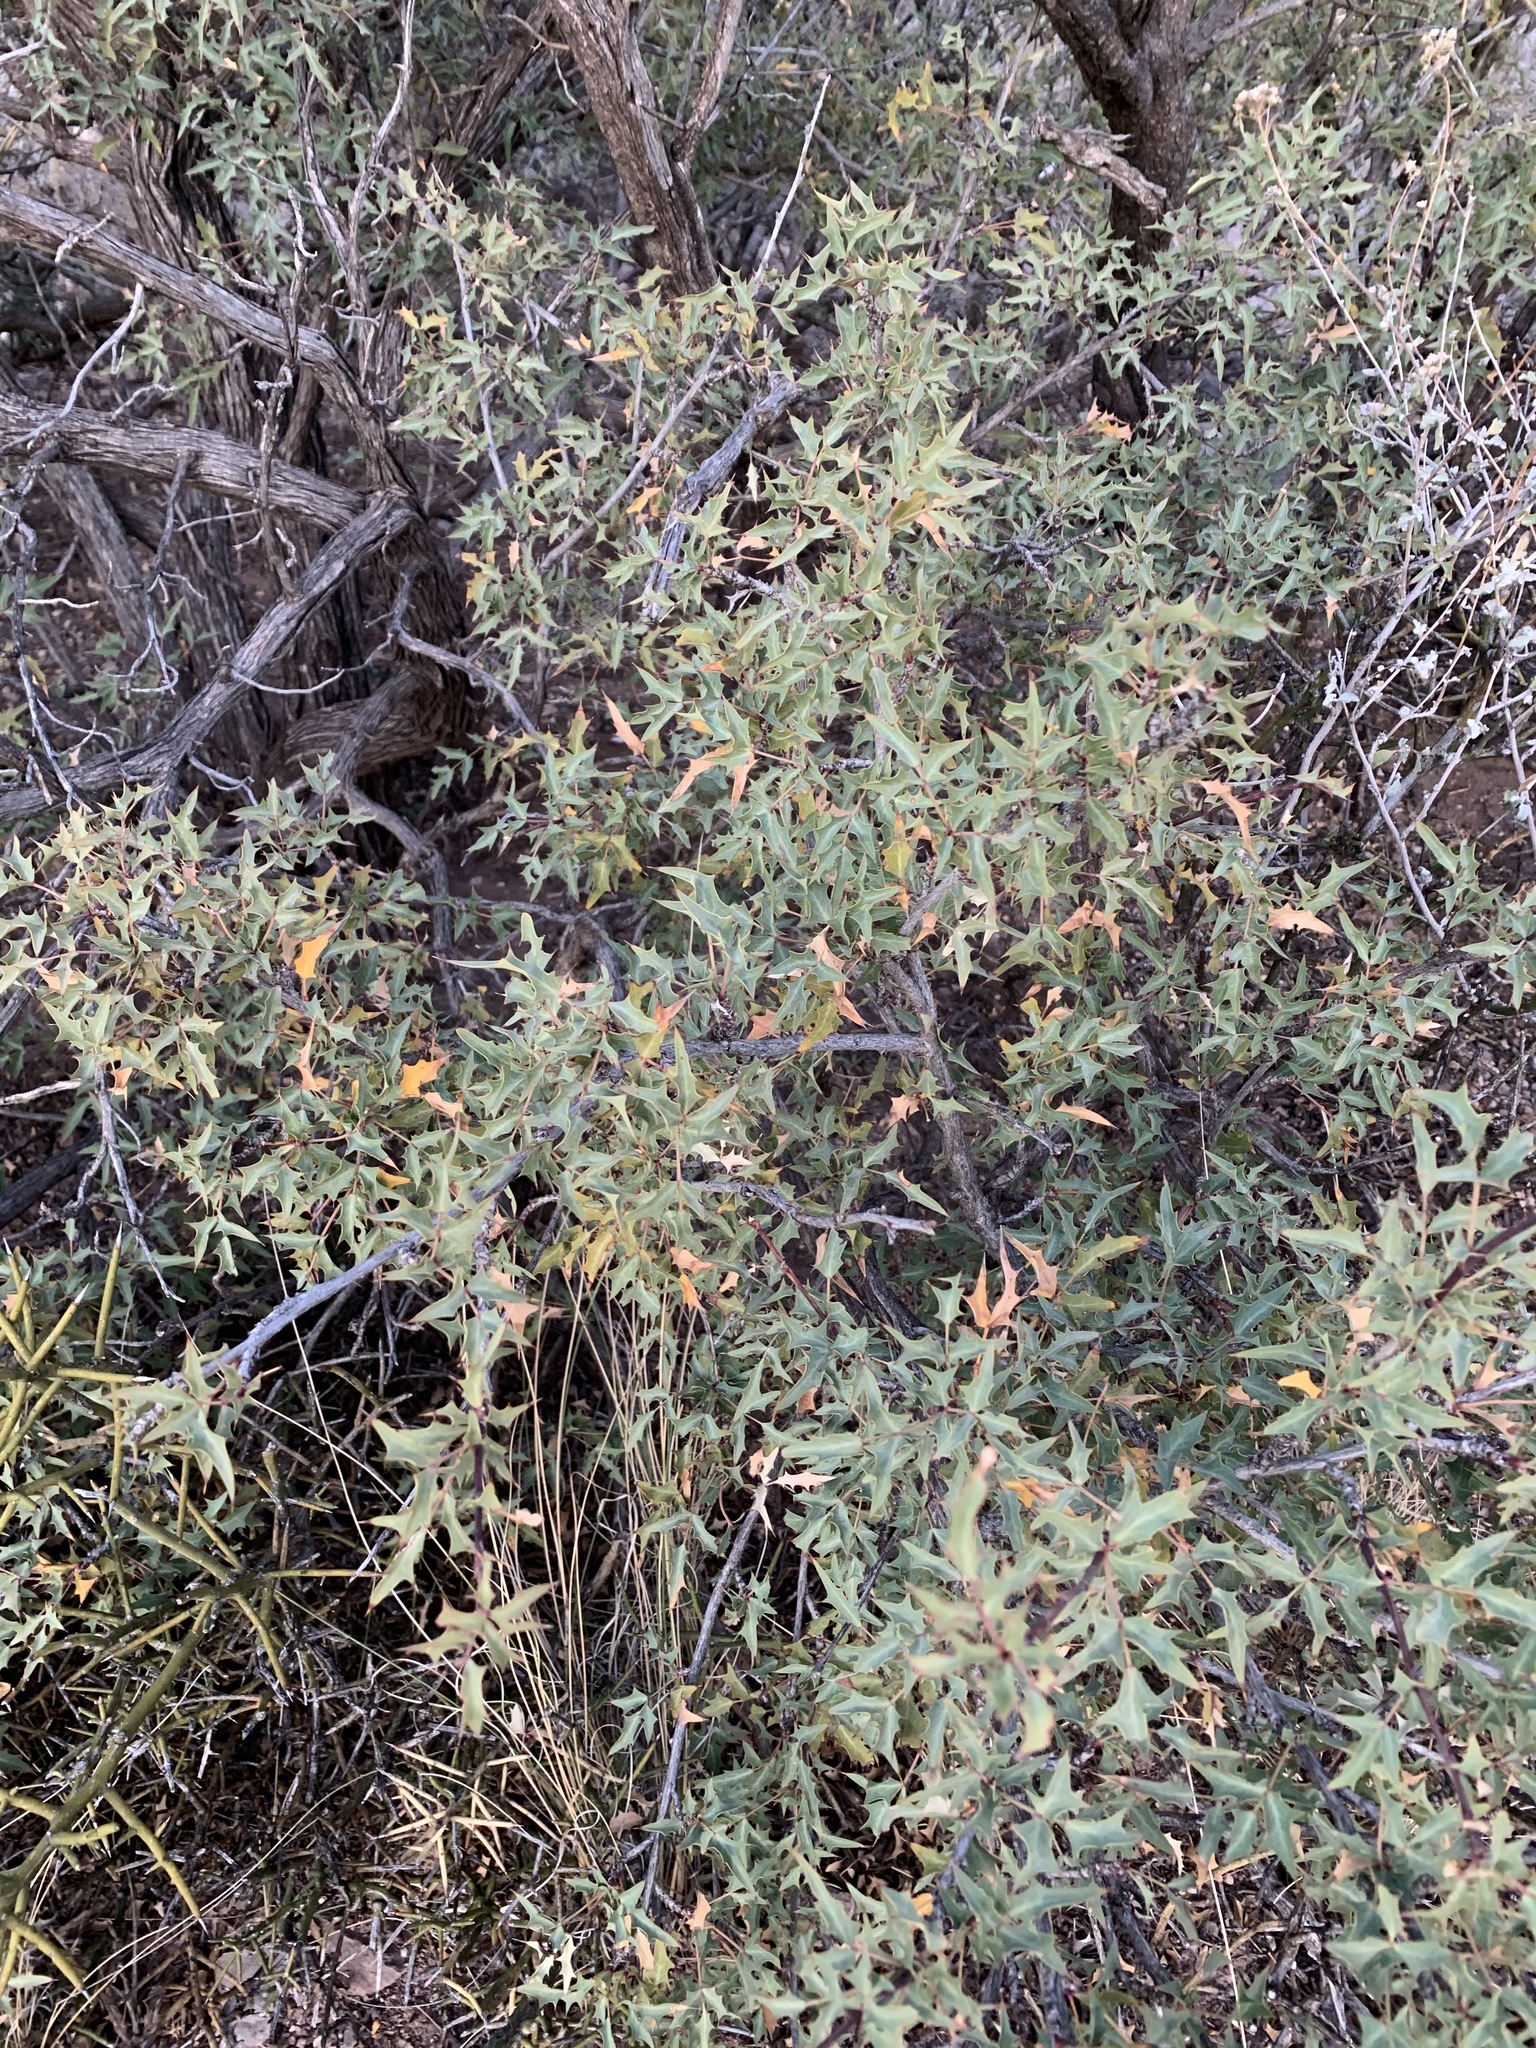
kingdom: Plantae
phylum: Tracheophyta
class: Magnoliopsida
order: Ranunculales
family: Berberidaceae
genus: Alloberberis
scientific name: Alloberberis haematocarpa
